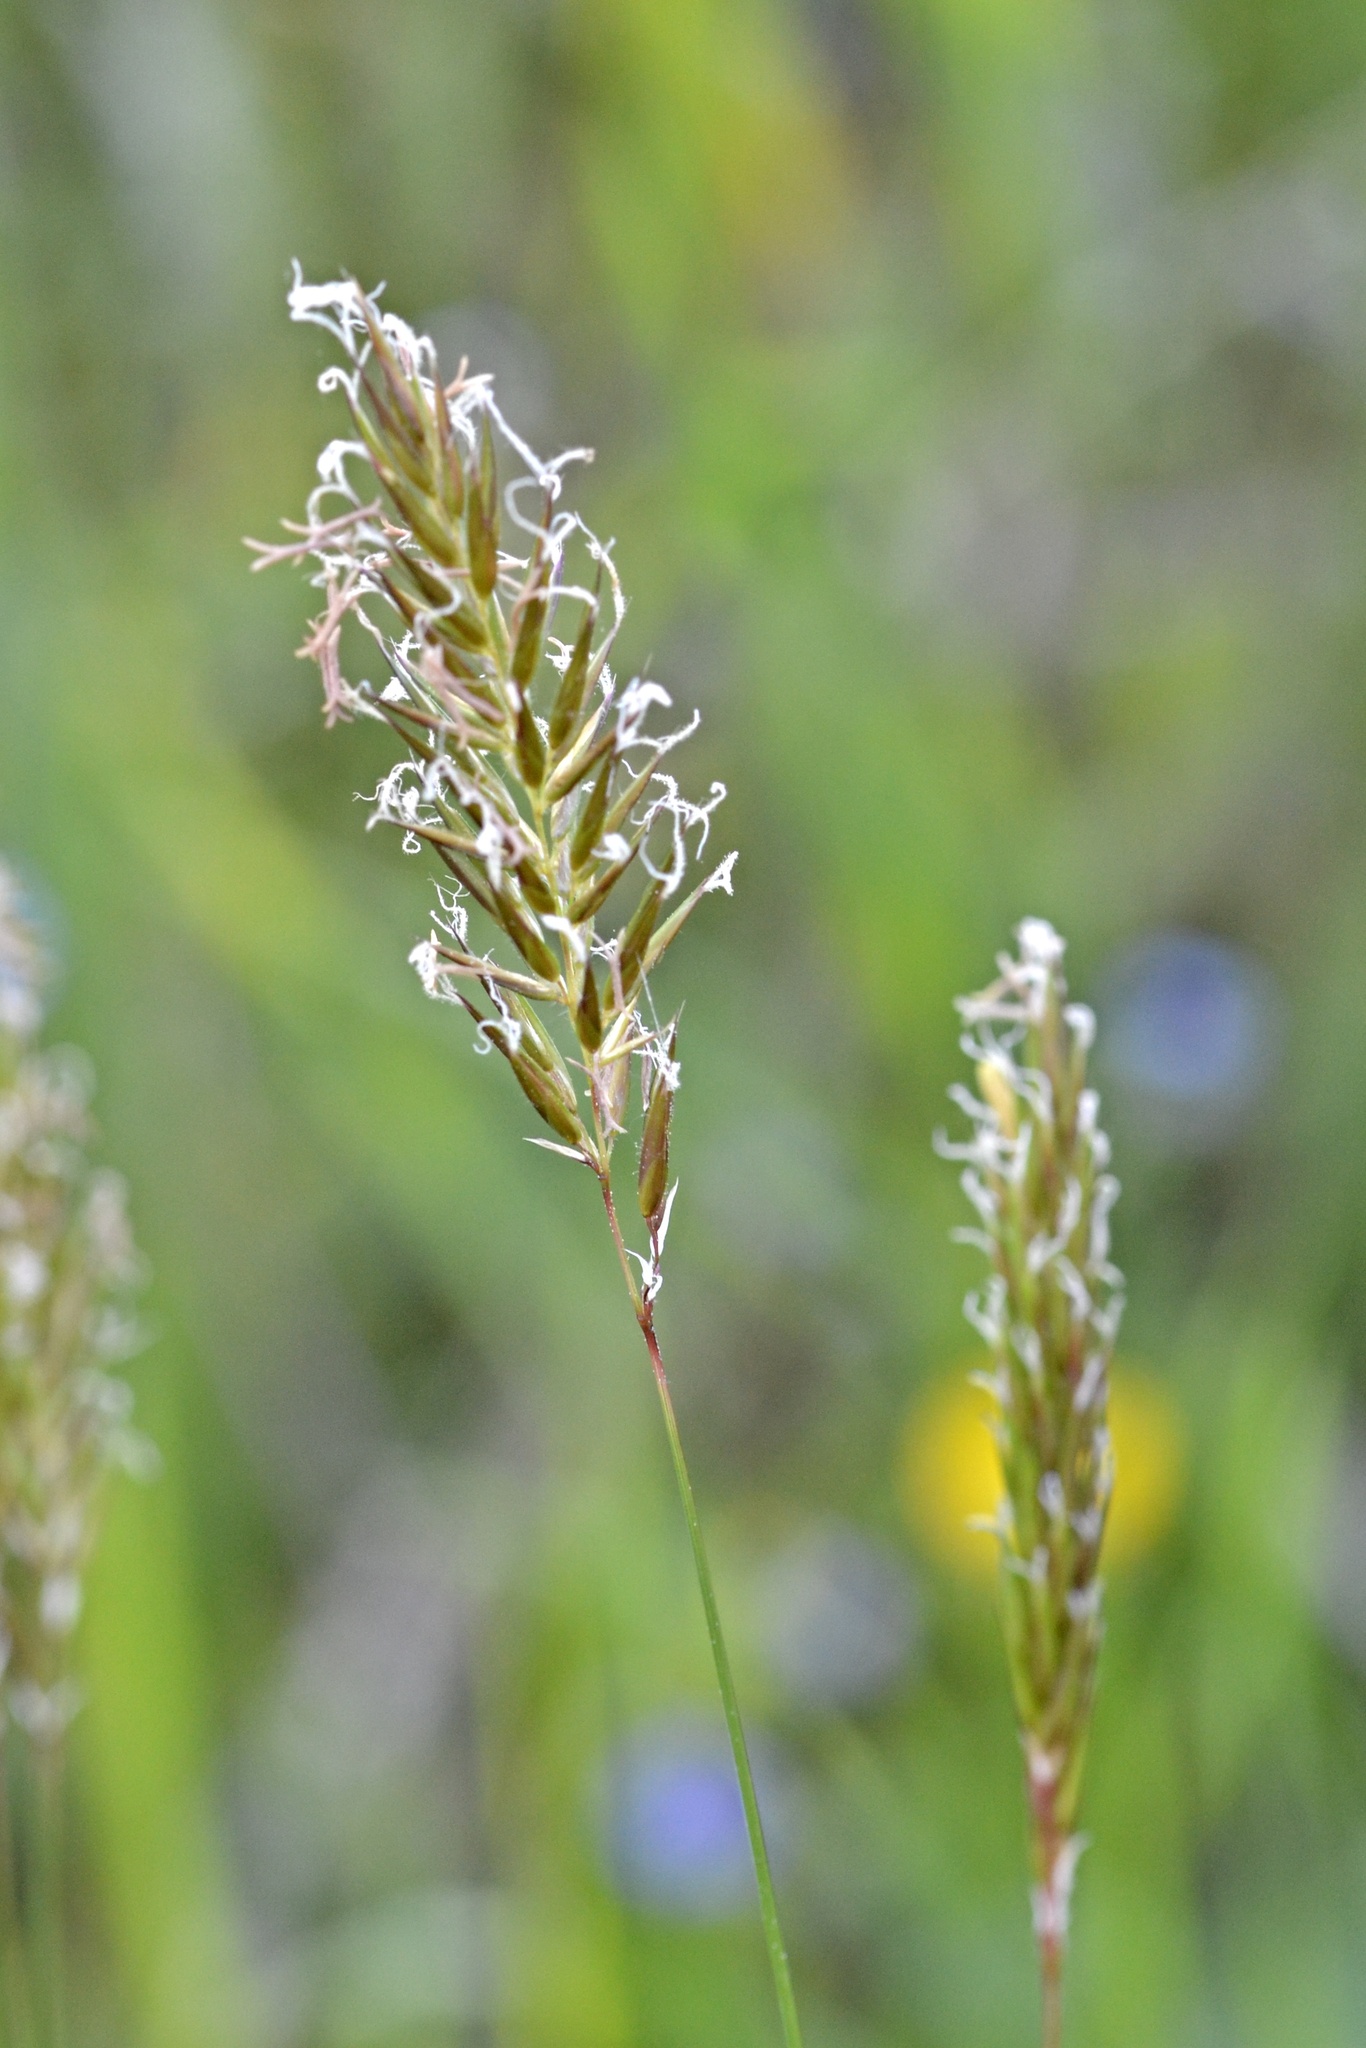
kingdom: Plantae
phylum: Tracheophyta
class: Liliopsida
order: Poales
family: Poaceae
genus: Anthoxanthum
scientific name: Anthoxanthum odoratum
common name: Sweet vernalgrass
